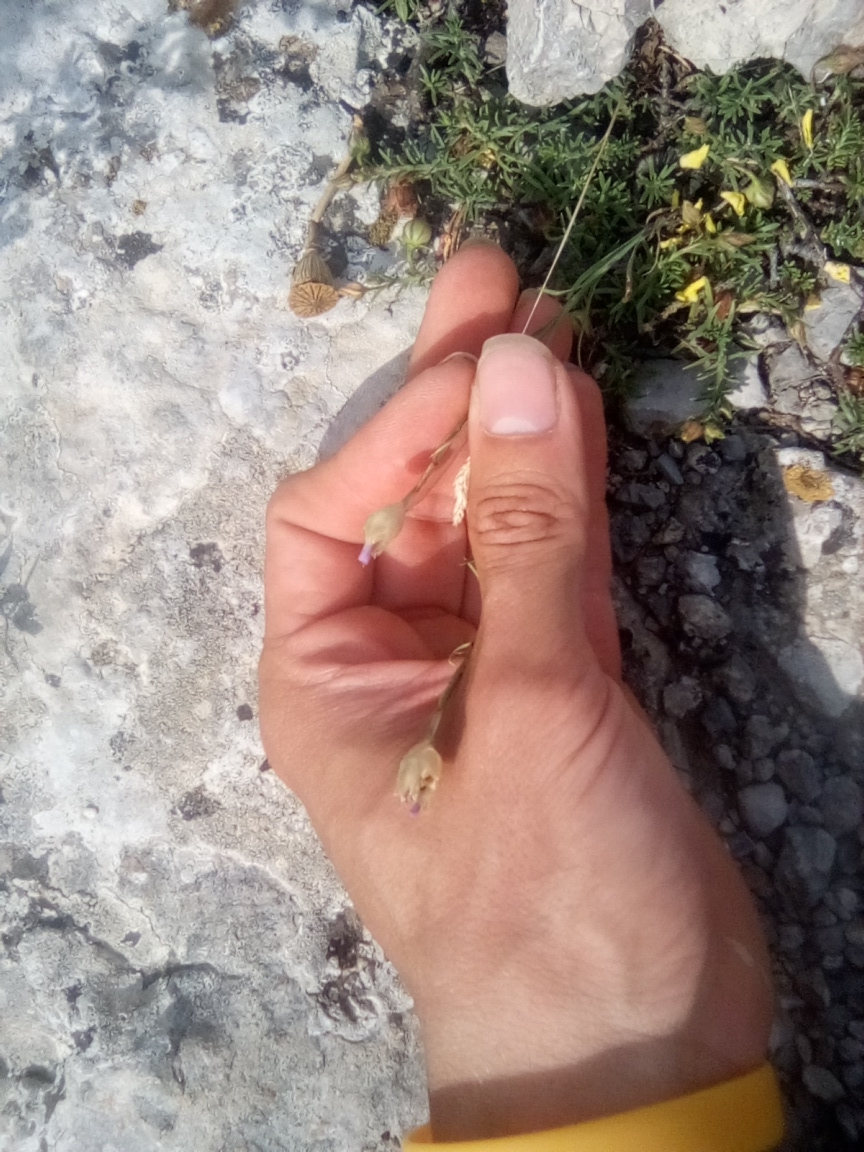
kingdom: Plantae
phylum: Tracheophyta
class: Magnoliopsida
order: Caryophyllales
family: Caryophyllaceae
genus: Petrorhagia
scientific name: Petrorhagia prolifera
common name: Proliferous pink
